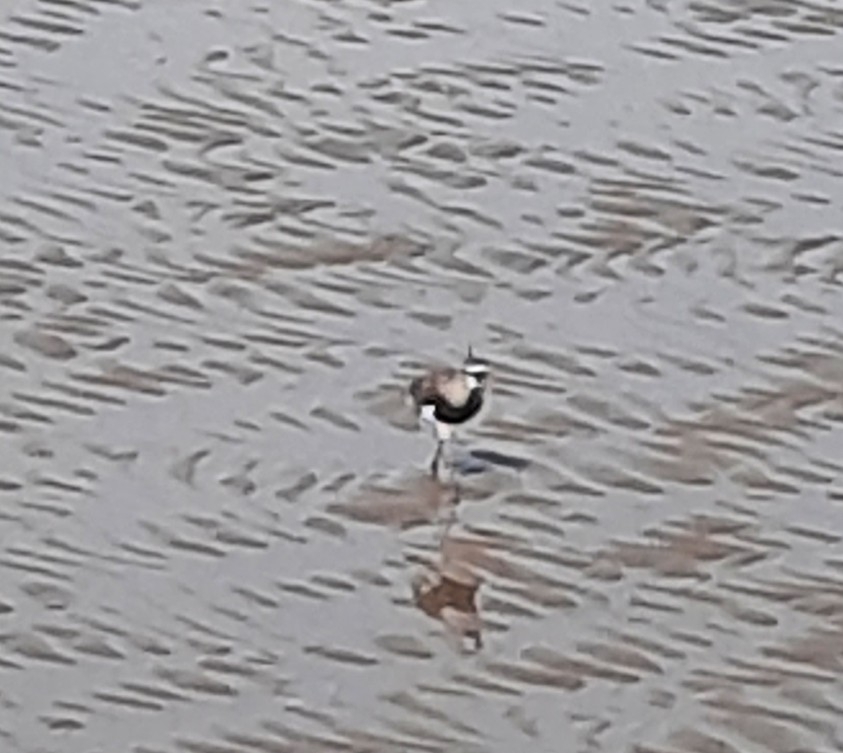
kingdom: Animalia
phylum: Chordata
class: Aves
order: Charadriiformes
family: Charadriidae
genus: Vanellus
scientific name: Vanellus chilensis
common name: Southern lapwing
